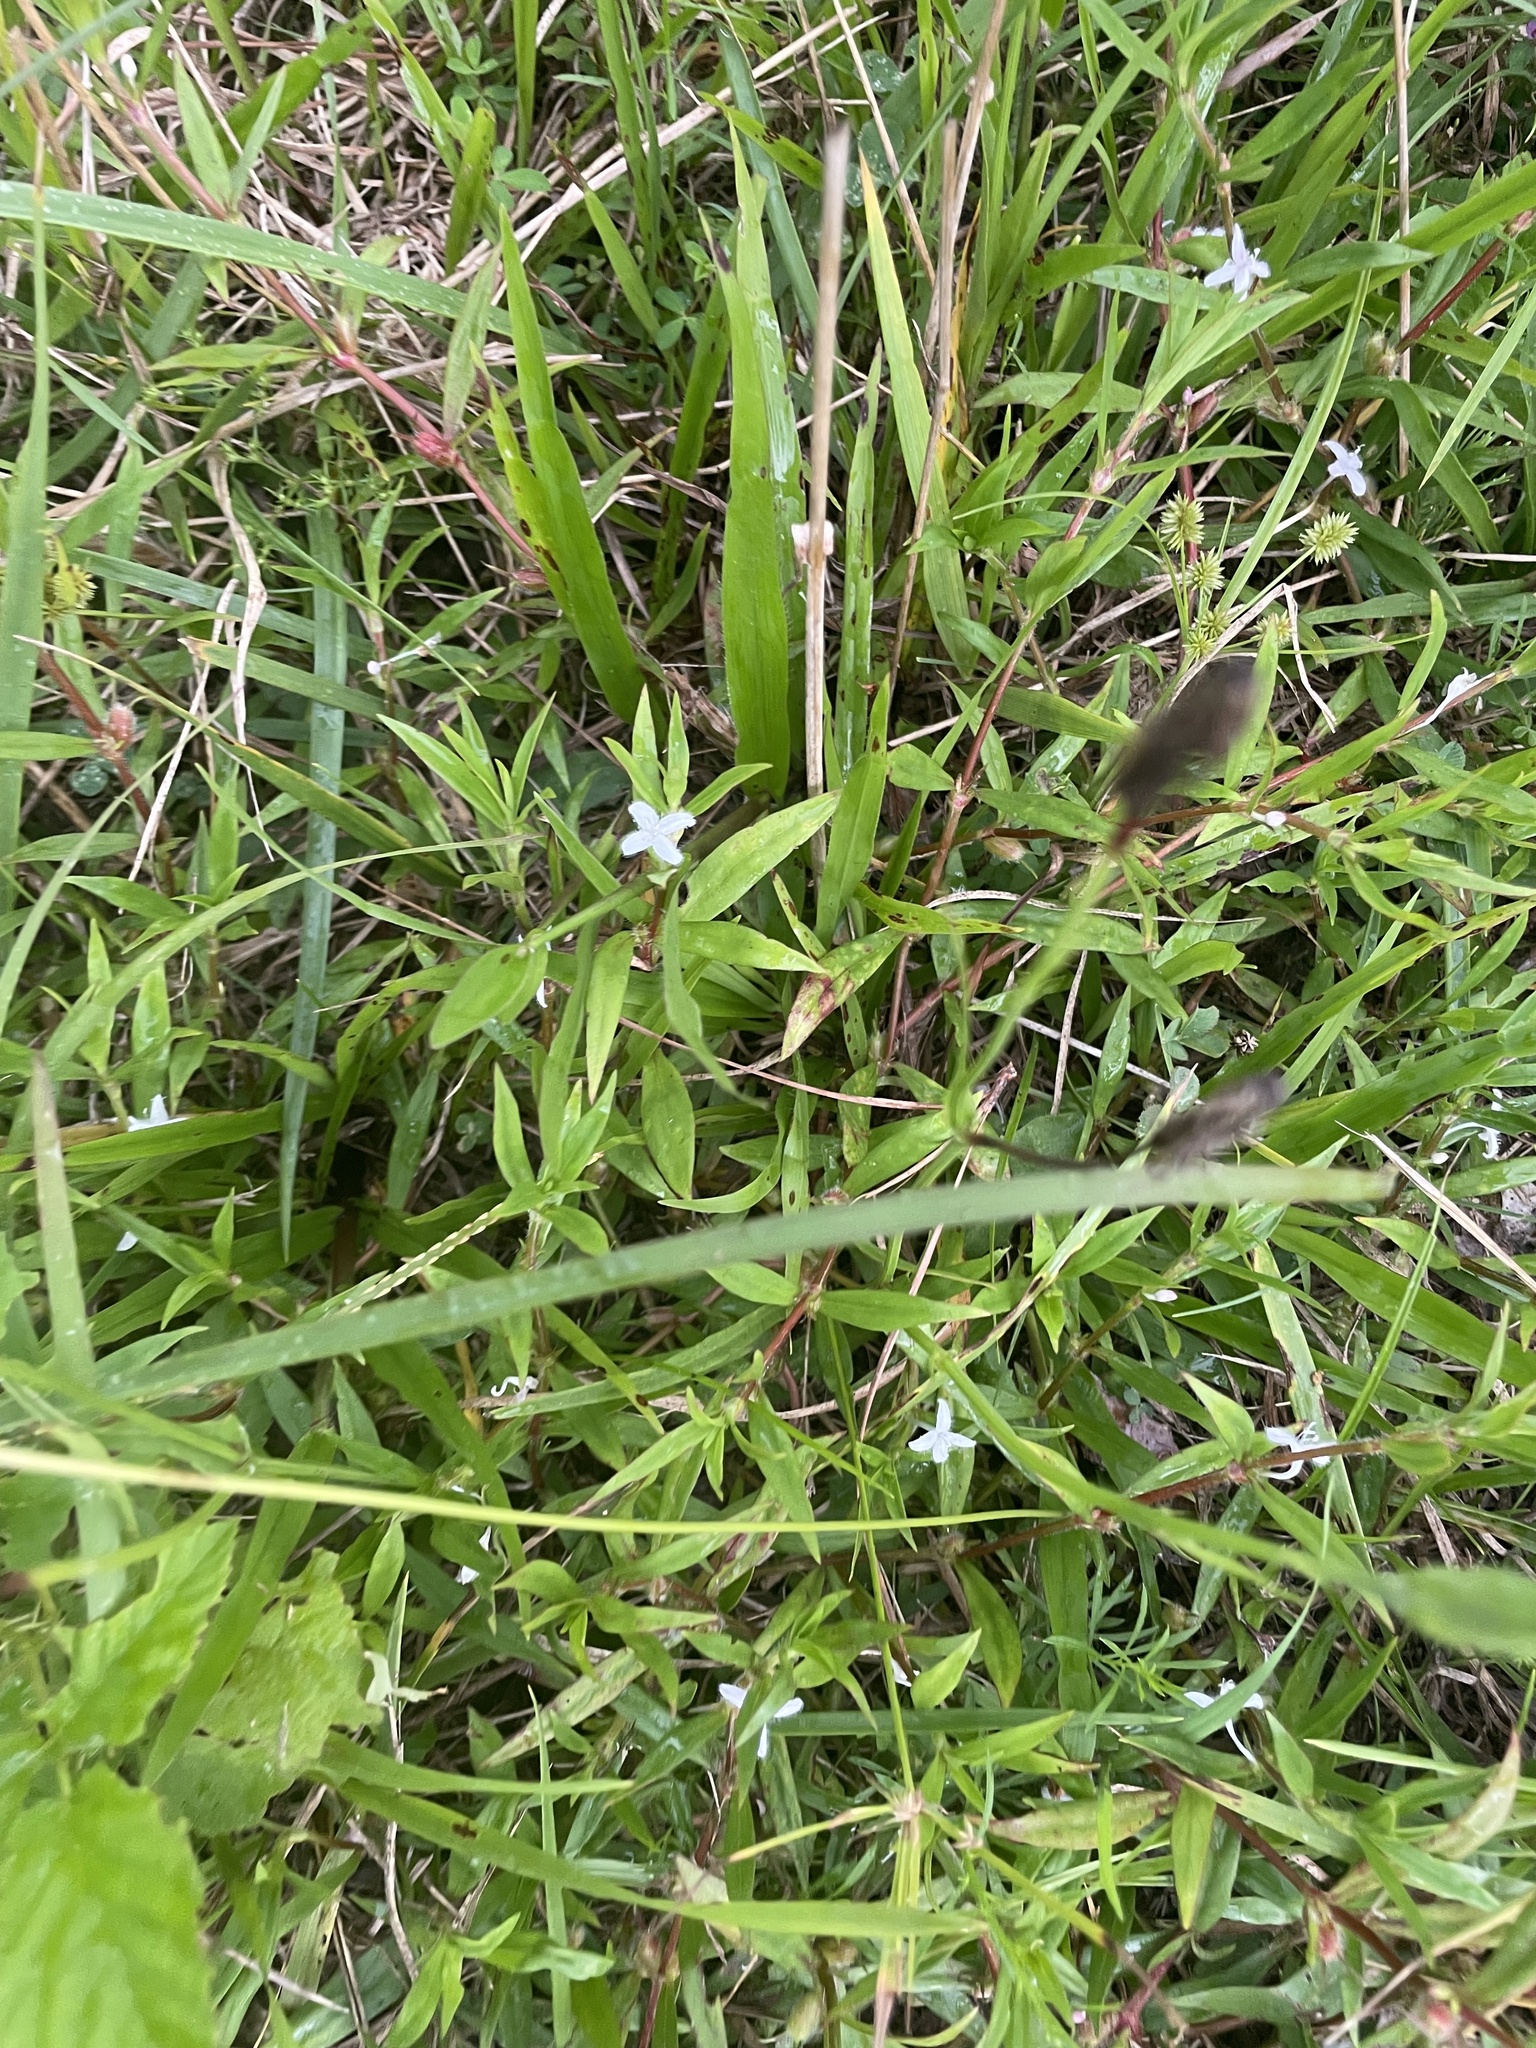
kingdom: Plantae
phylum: Tracheophyta
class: Magnoliopsida
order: Gentianales
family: Rubiaceae
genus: Diodia
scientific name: Diodia virginiana
